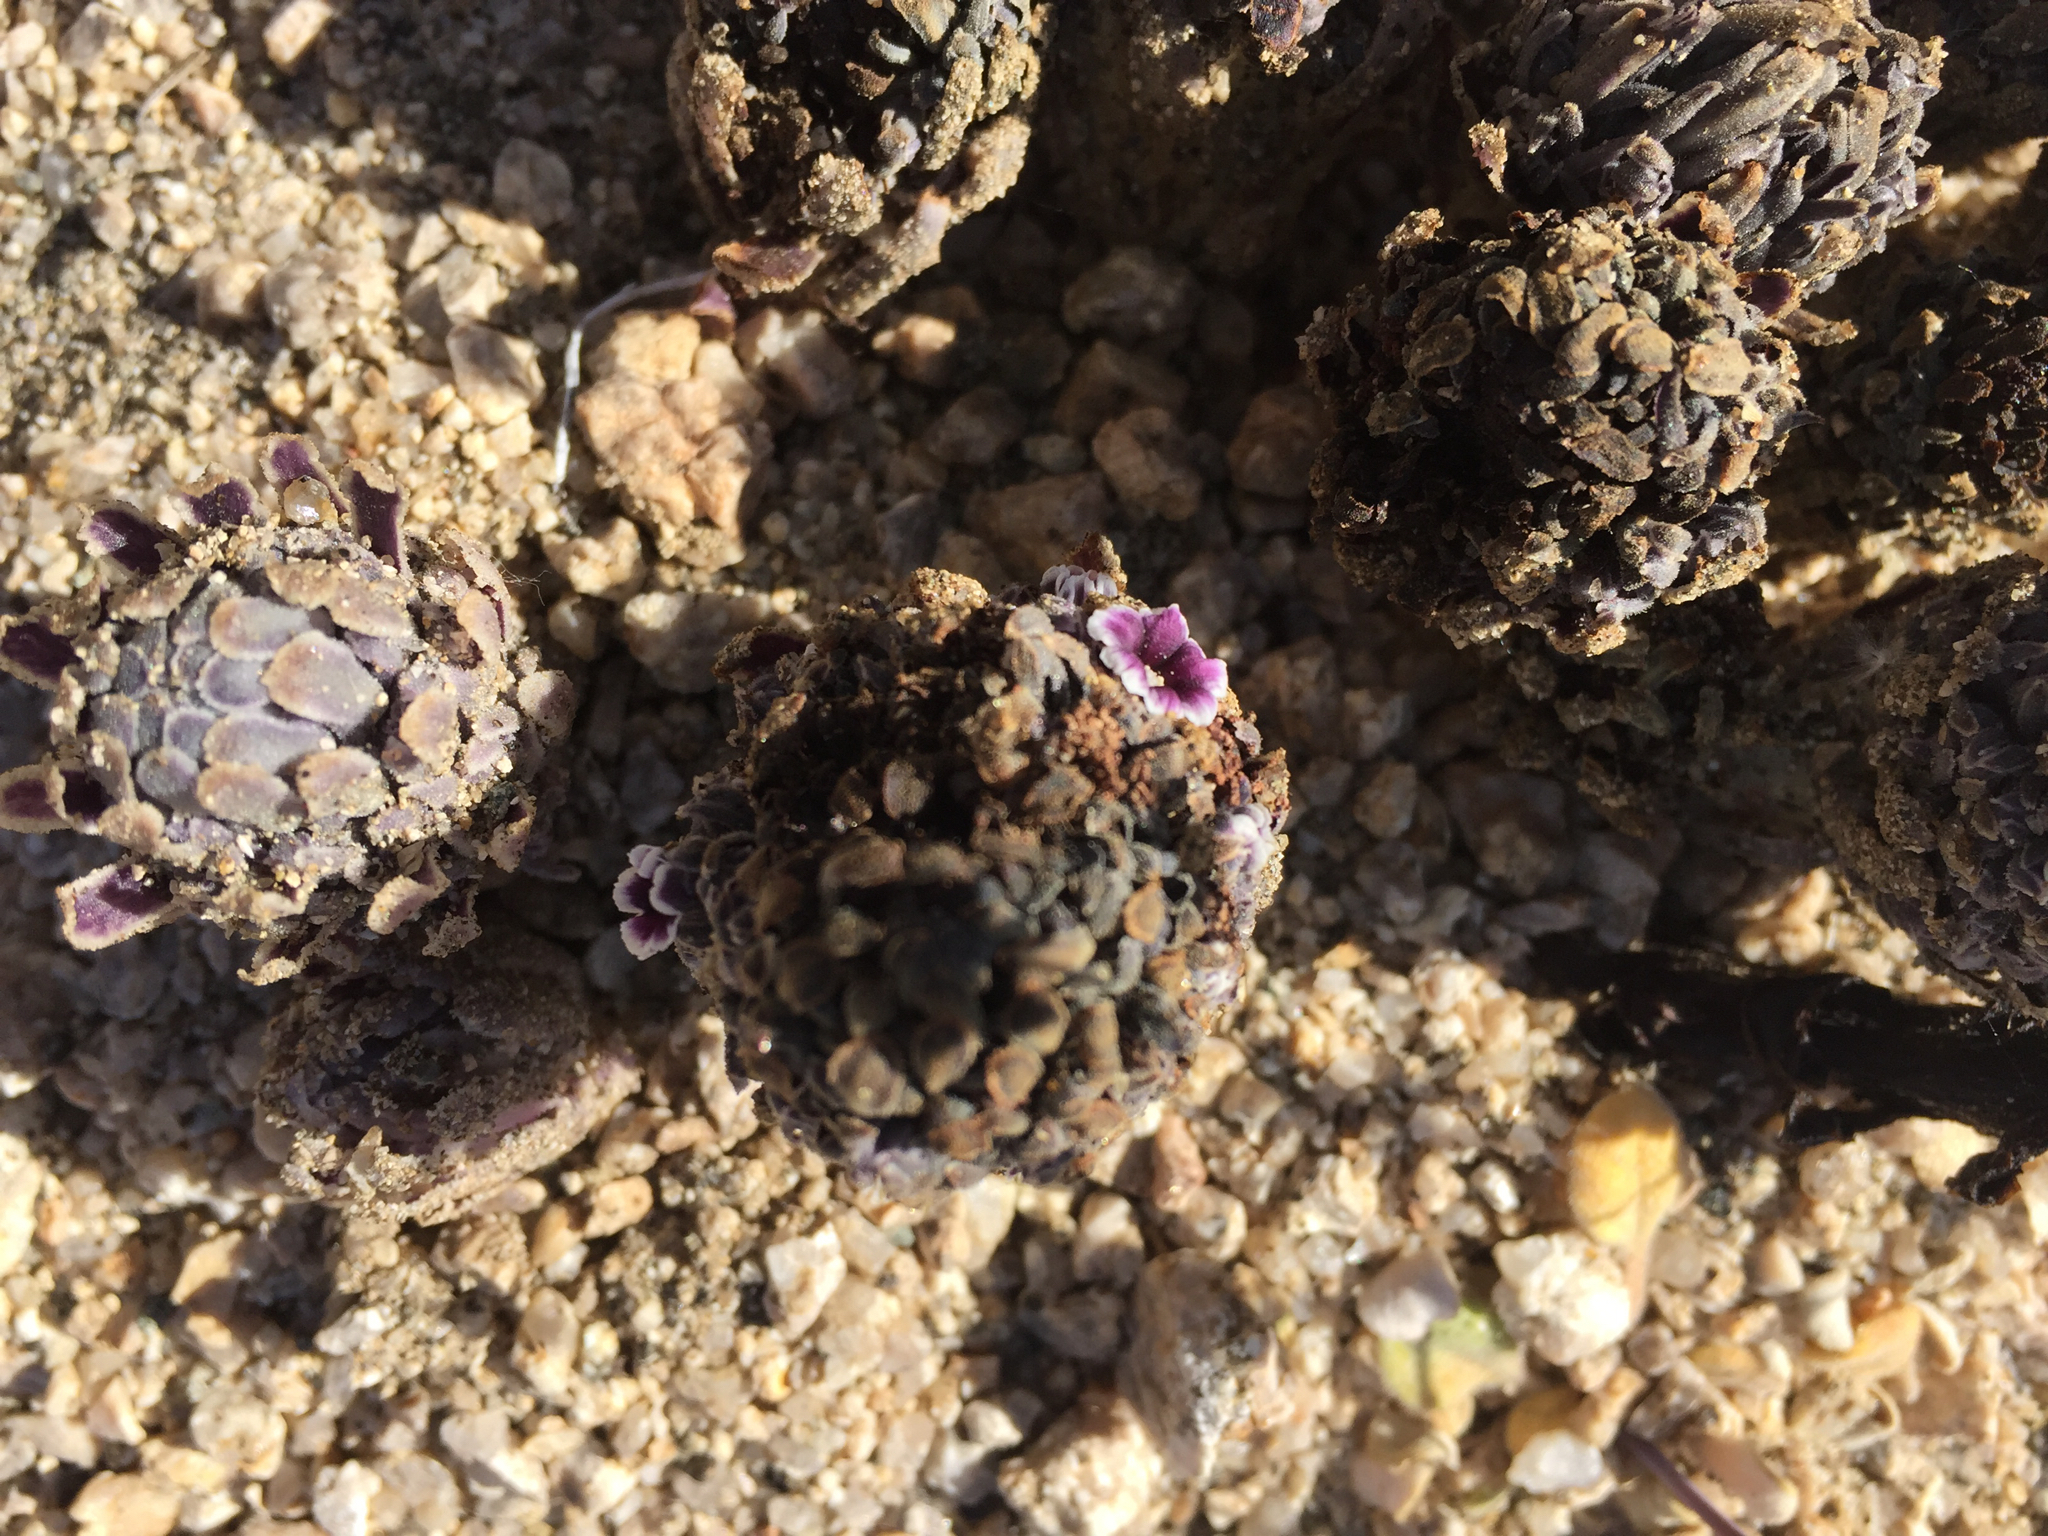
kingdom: Plantae
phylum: Tracheophyta
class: Magnoliopsida
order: Boraginales
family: Lennoaceae
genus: Pholisma
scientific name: Pholisma arenarium
